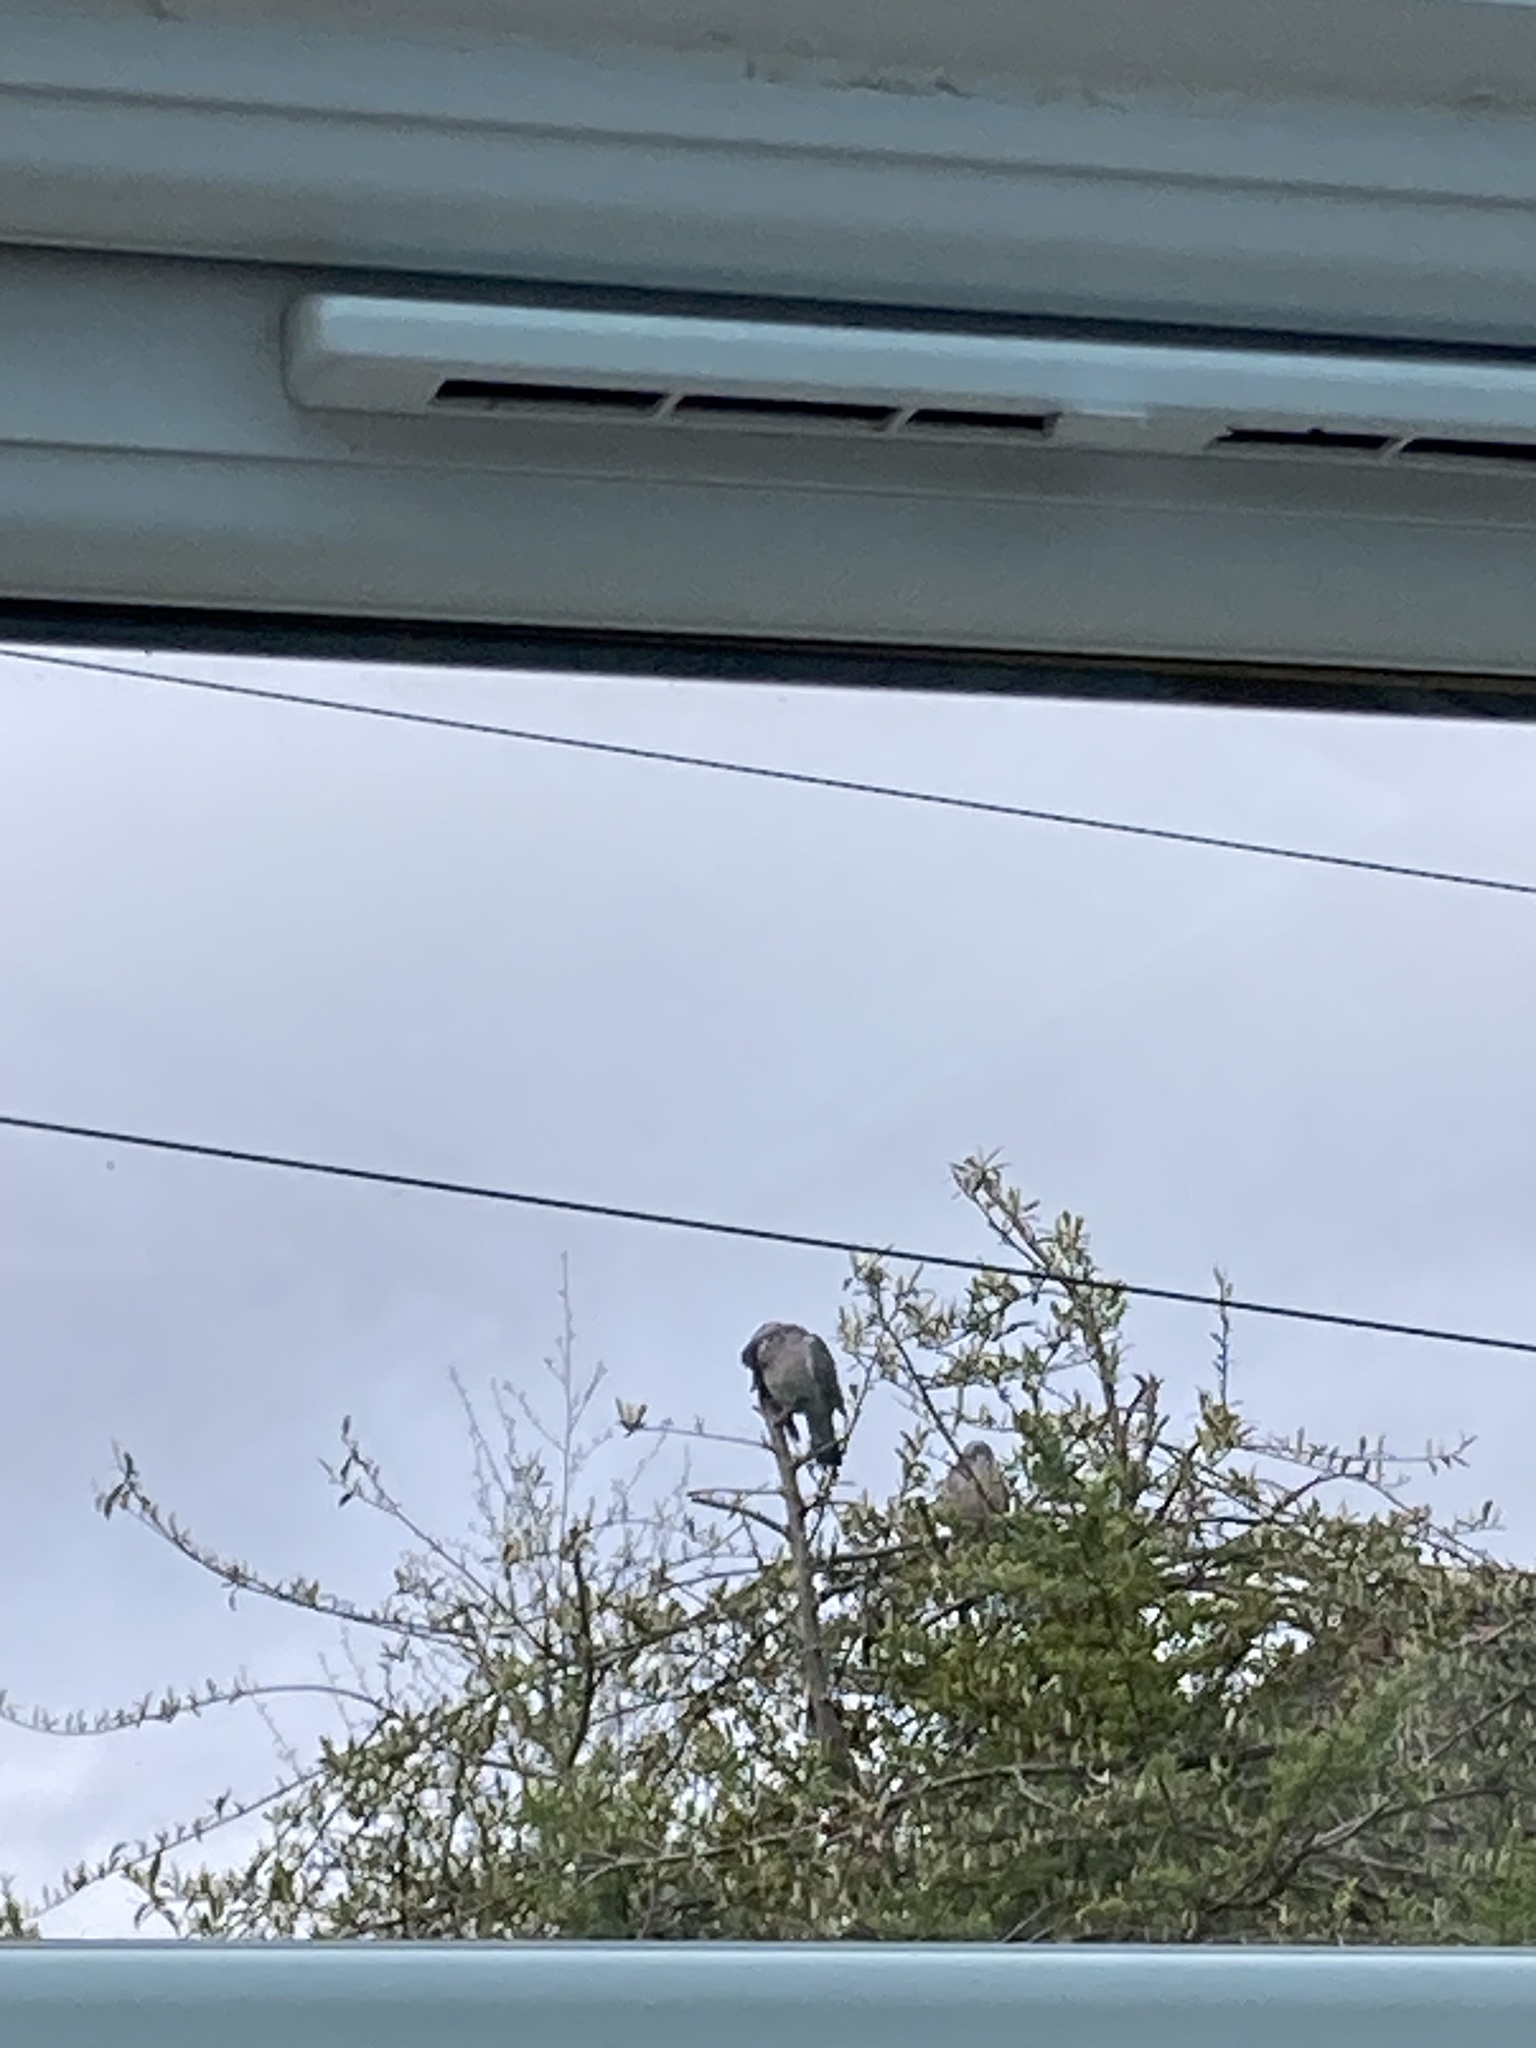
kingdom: Animalia
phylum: Chordata
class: Aves
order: Columbiformes
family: Columbidae
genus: Columba
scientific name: Columba palumbus
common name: Common wood pigeon
